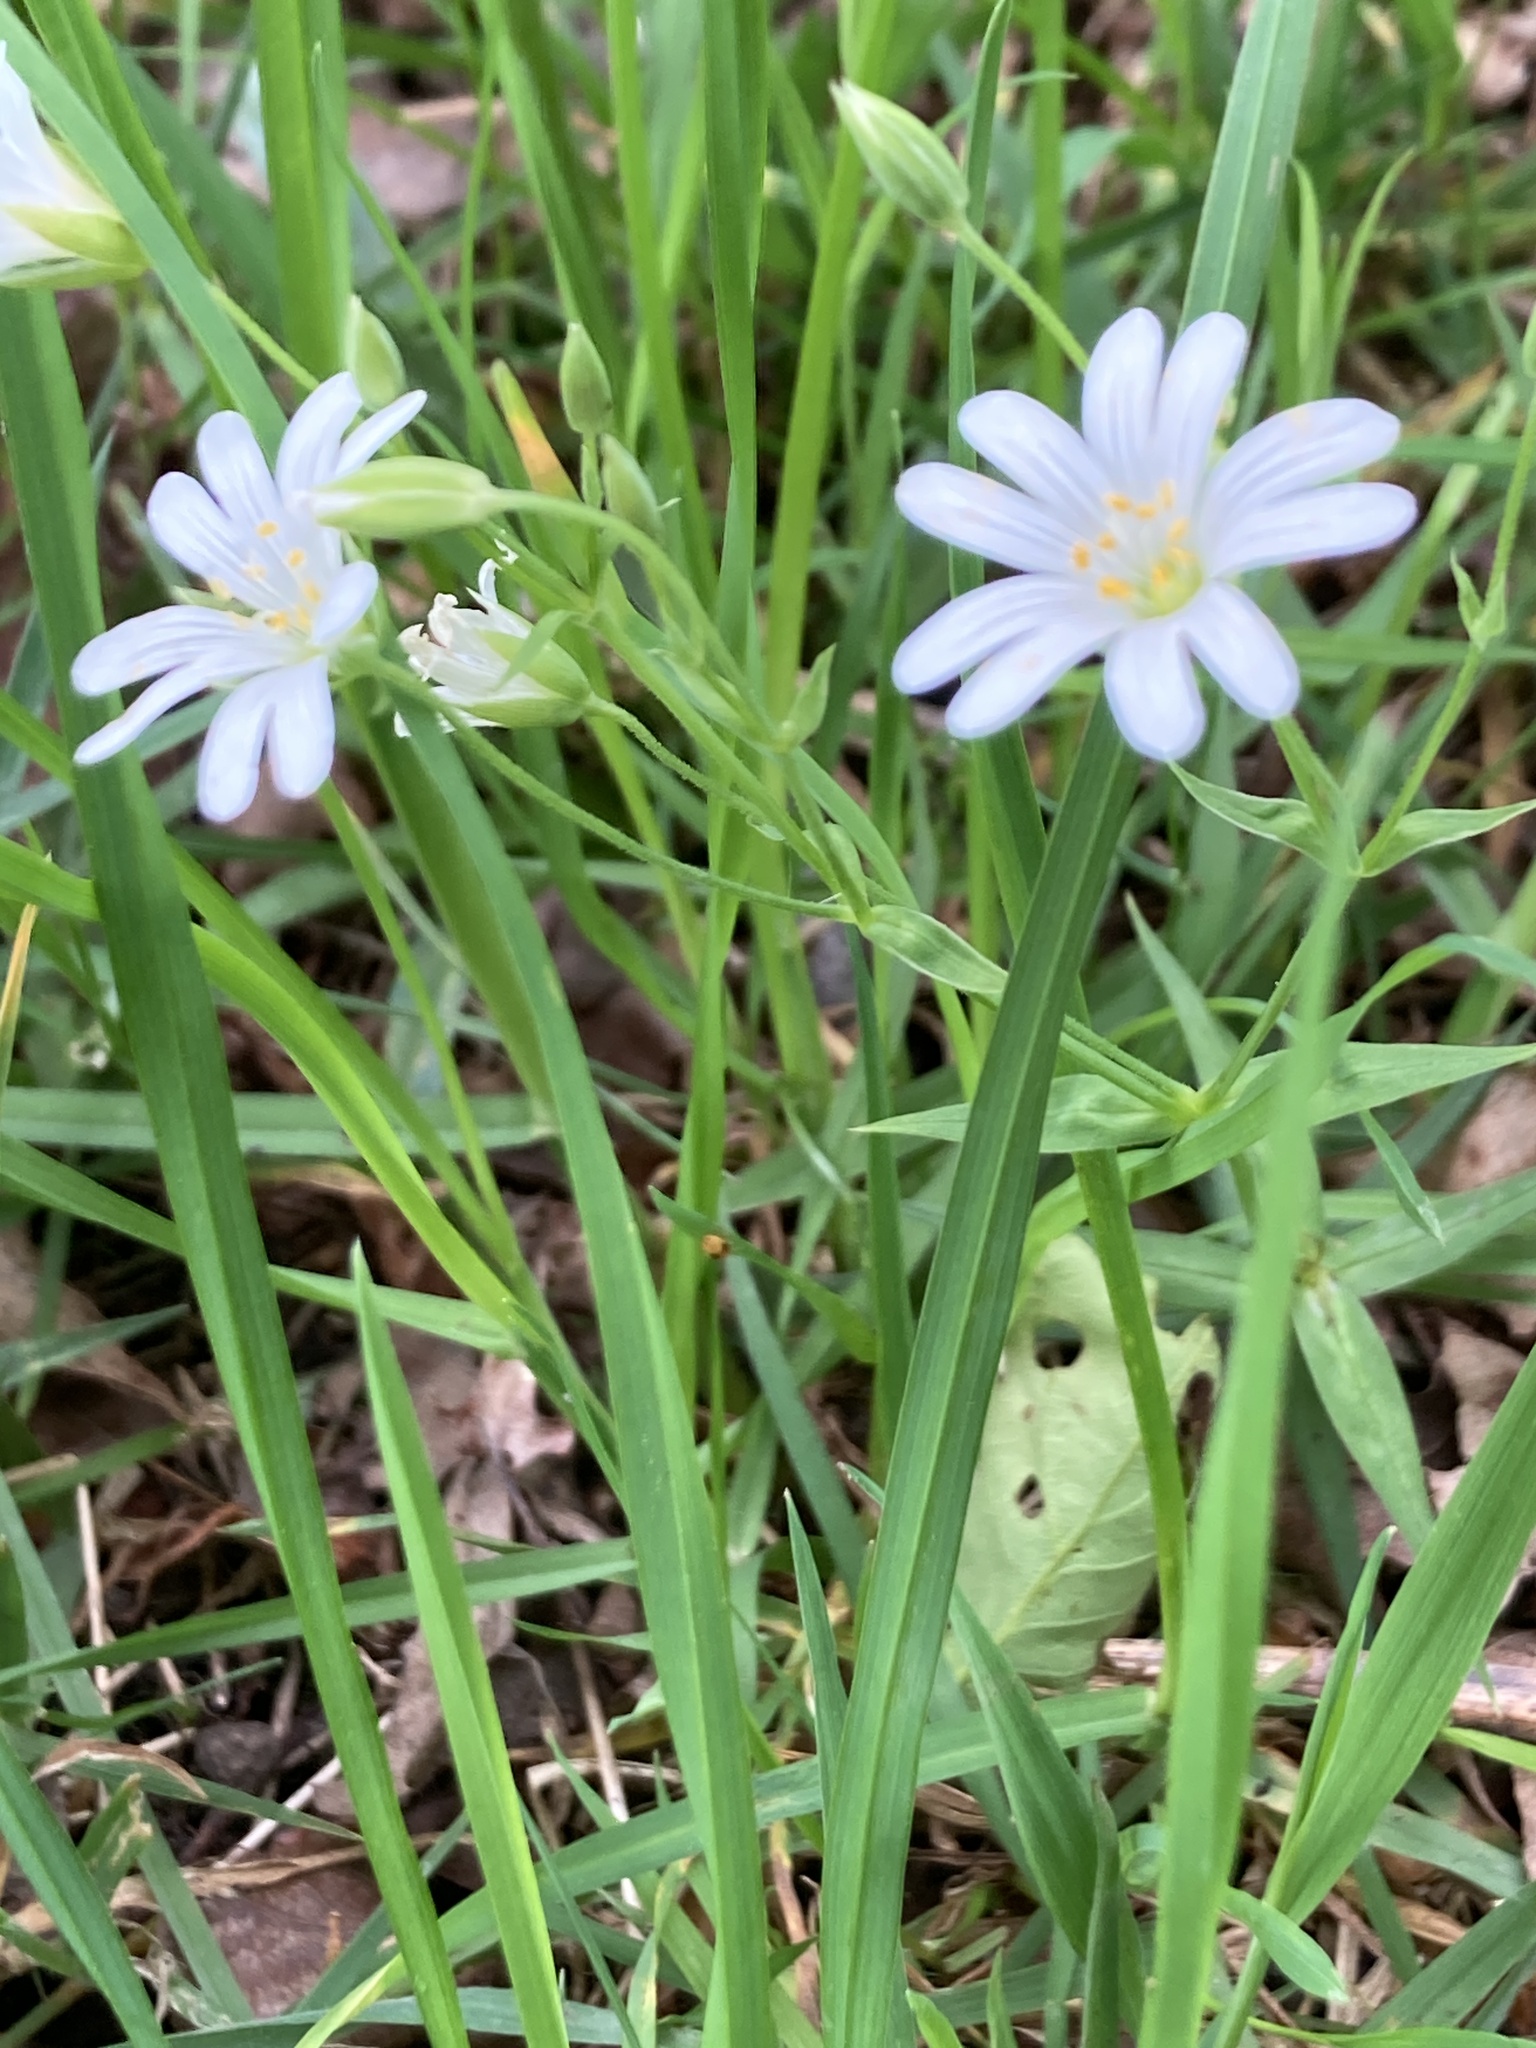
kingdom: Plantae
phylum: Tracheophyta
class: Magnoliopsida
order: Caryophyllales
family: Caryophyllaceae
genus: Rabelera
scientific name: Rabelera holostea
